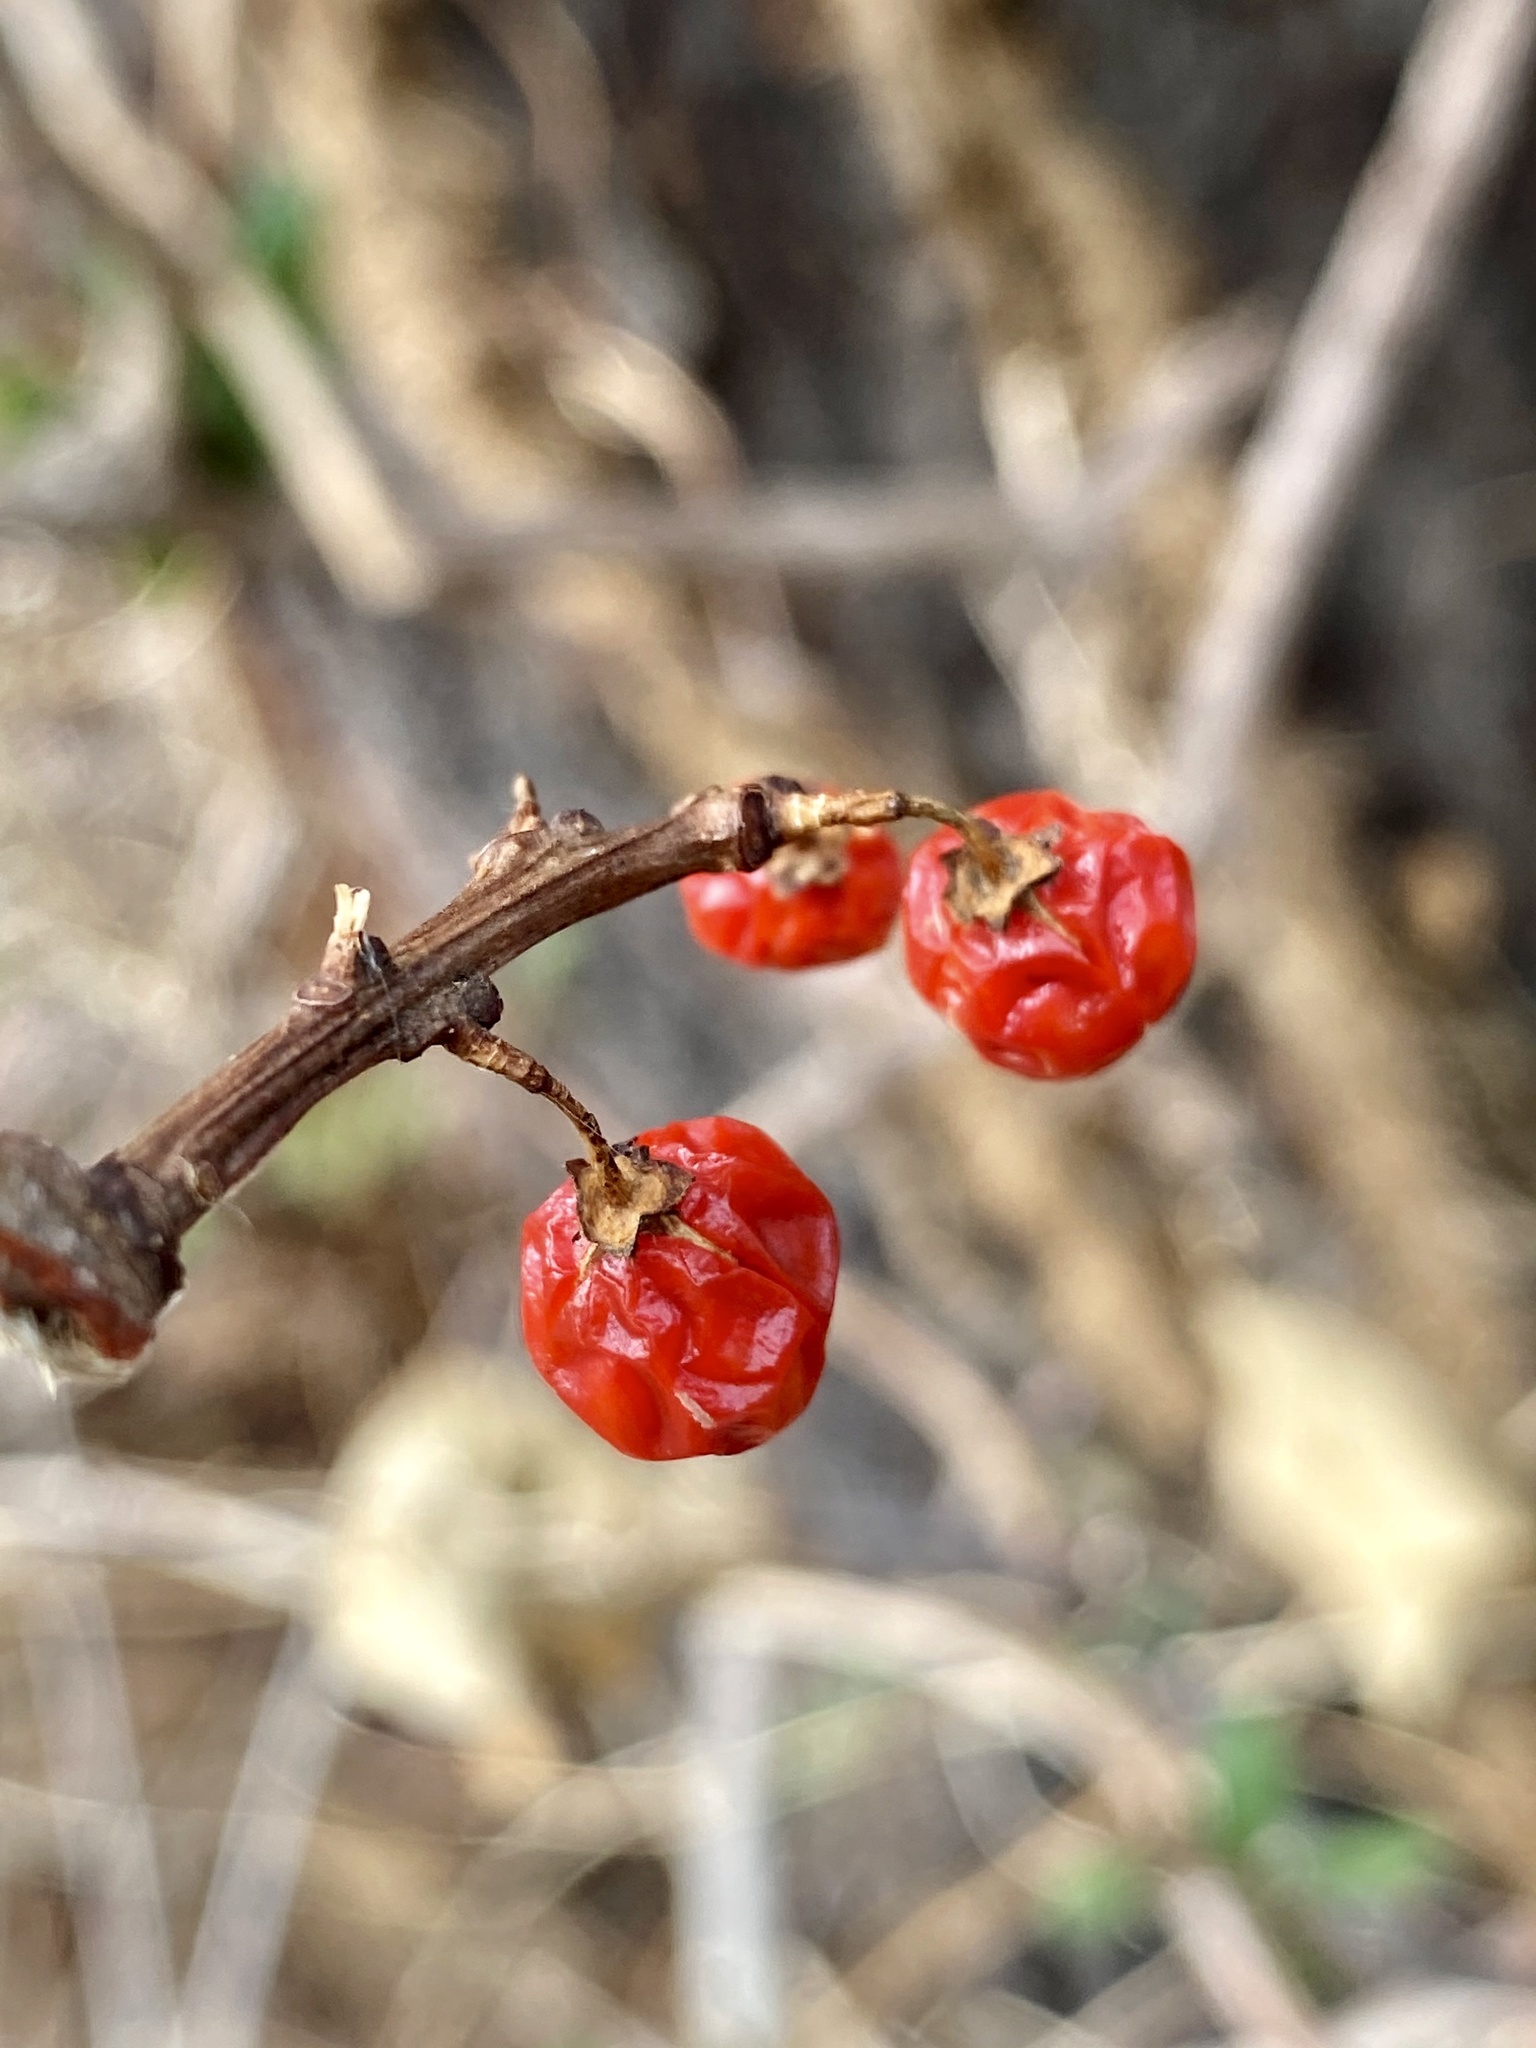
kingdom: Plantae
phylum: Tracheophyta
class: Magnoliopsida
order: Celastrales
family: Celastraceae
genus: Celastrus
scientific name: Celastrus orbiculatus
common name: Oriental bittersweet
